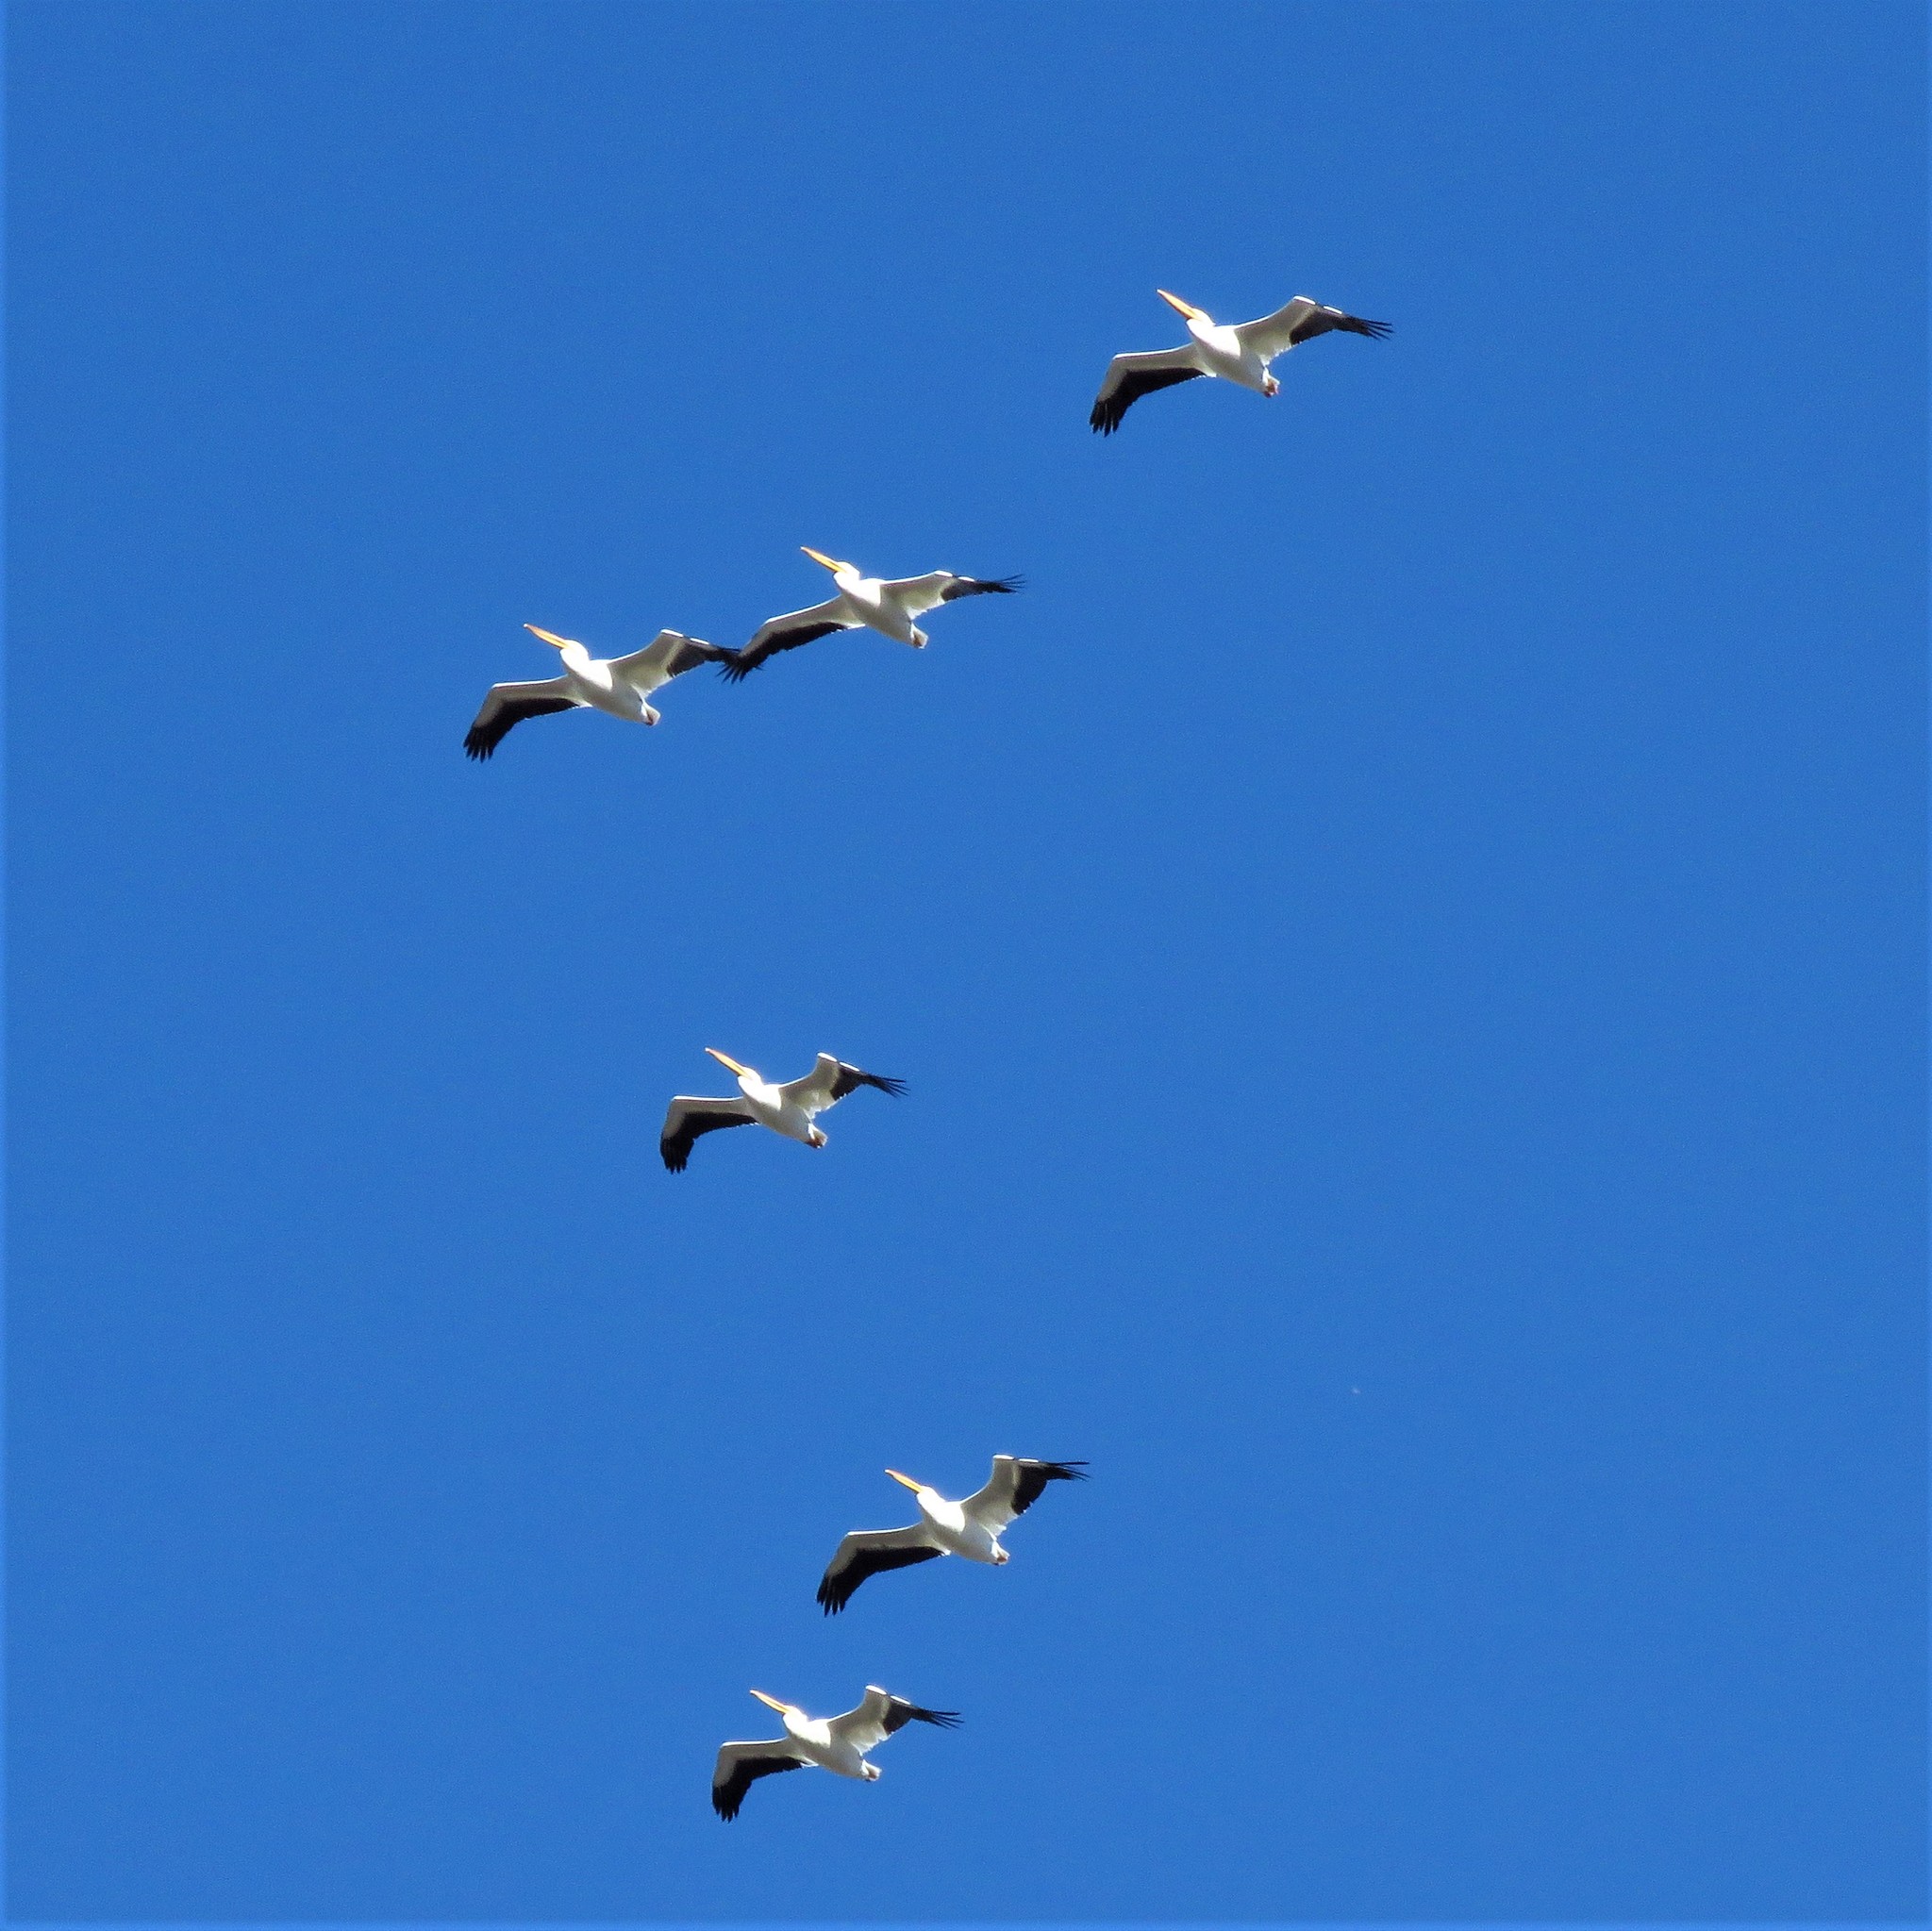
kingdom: Animalia
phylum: Chordata
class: Aves
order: Pelecaniformes
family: Pelecanidae
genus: Pelecanus
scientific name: Pelecanus erythrorhynchos
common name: American white pelican
